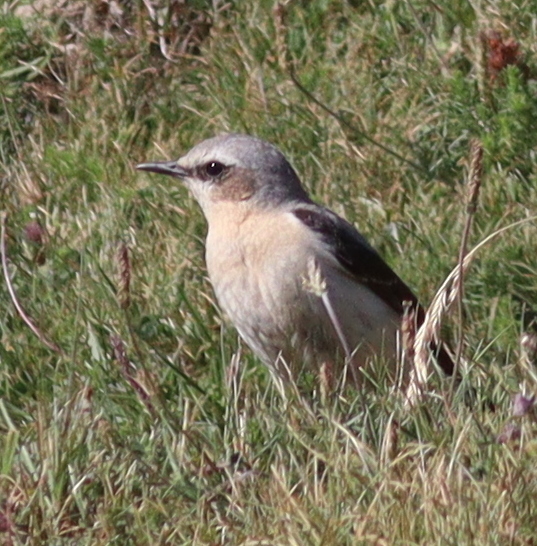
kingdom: Animalia
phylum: Chordata
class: Aves
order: Passeriformes
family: Muscicapidae
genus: Oenanthe
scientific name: Oenanthe oenanthe
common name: Northern wheatear
